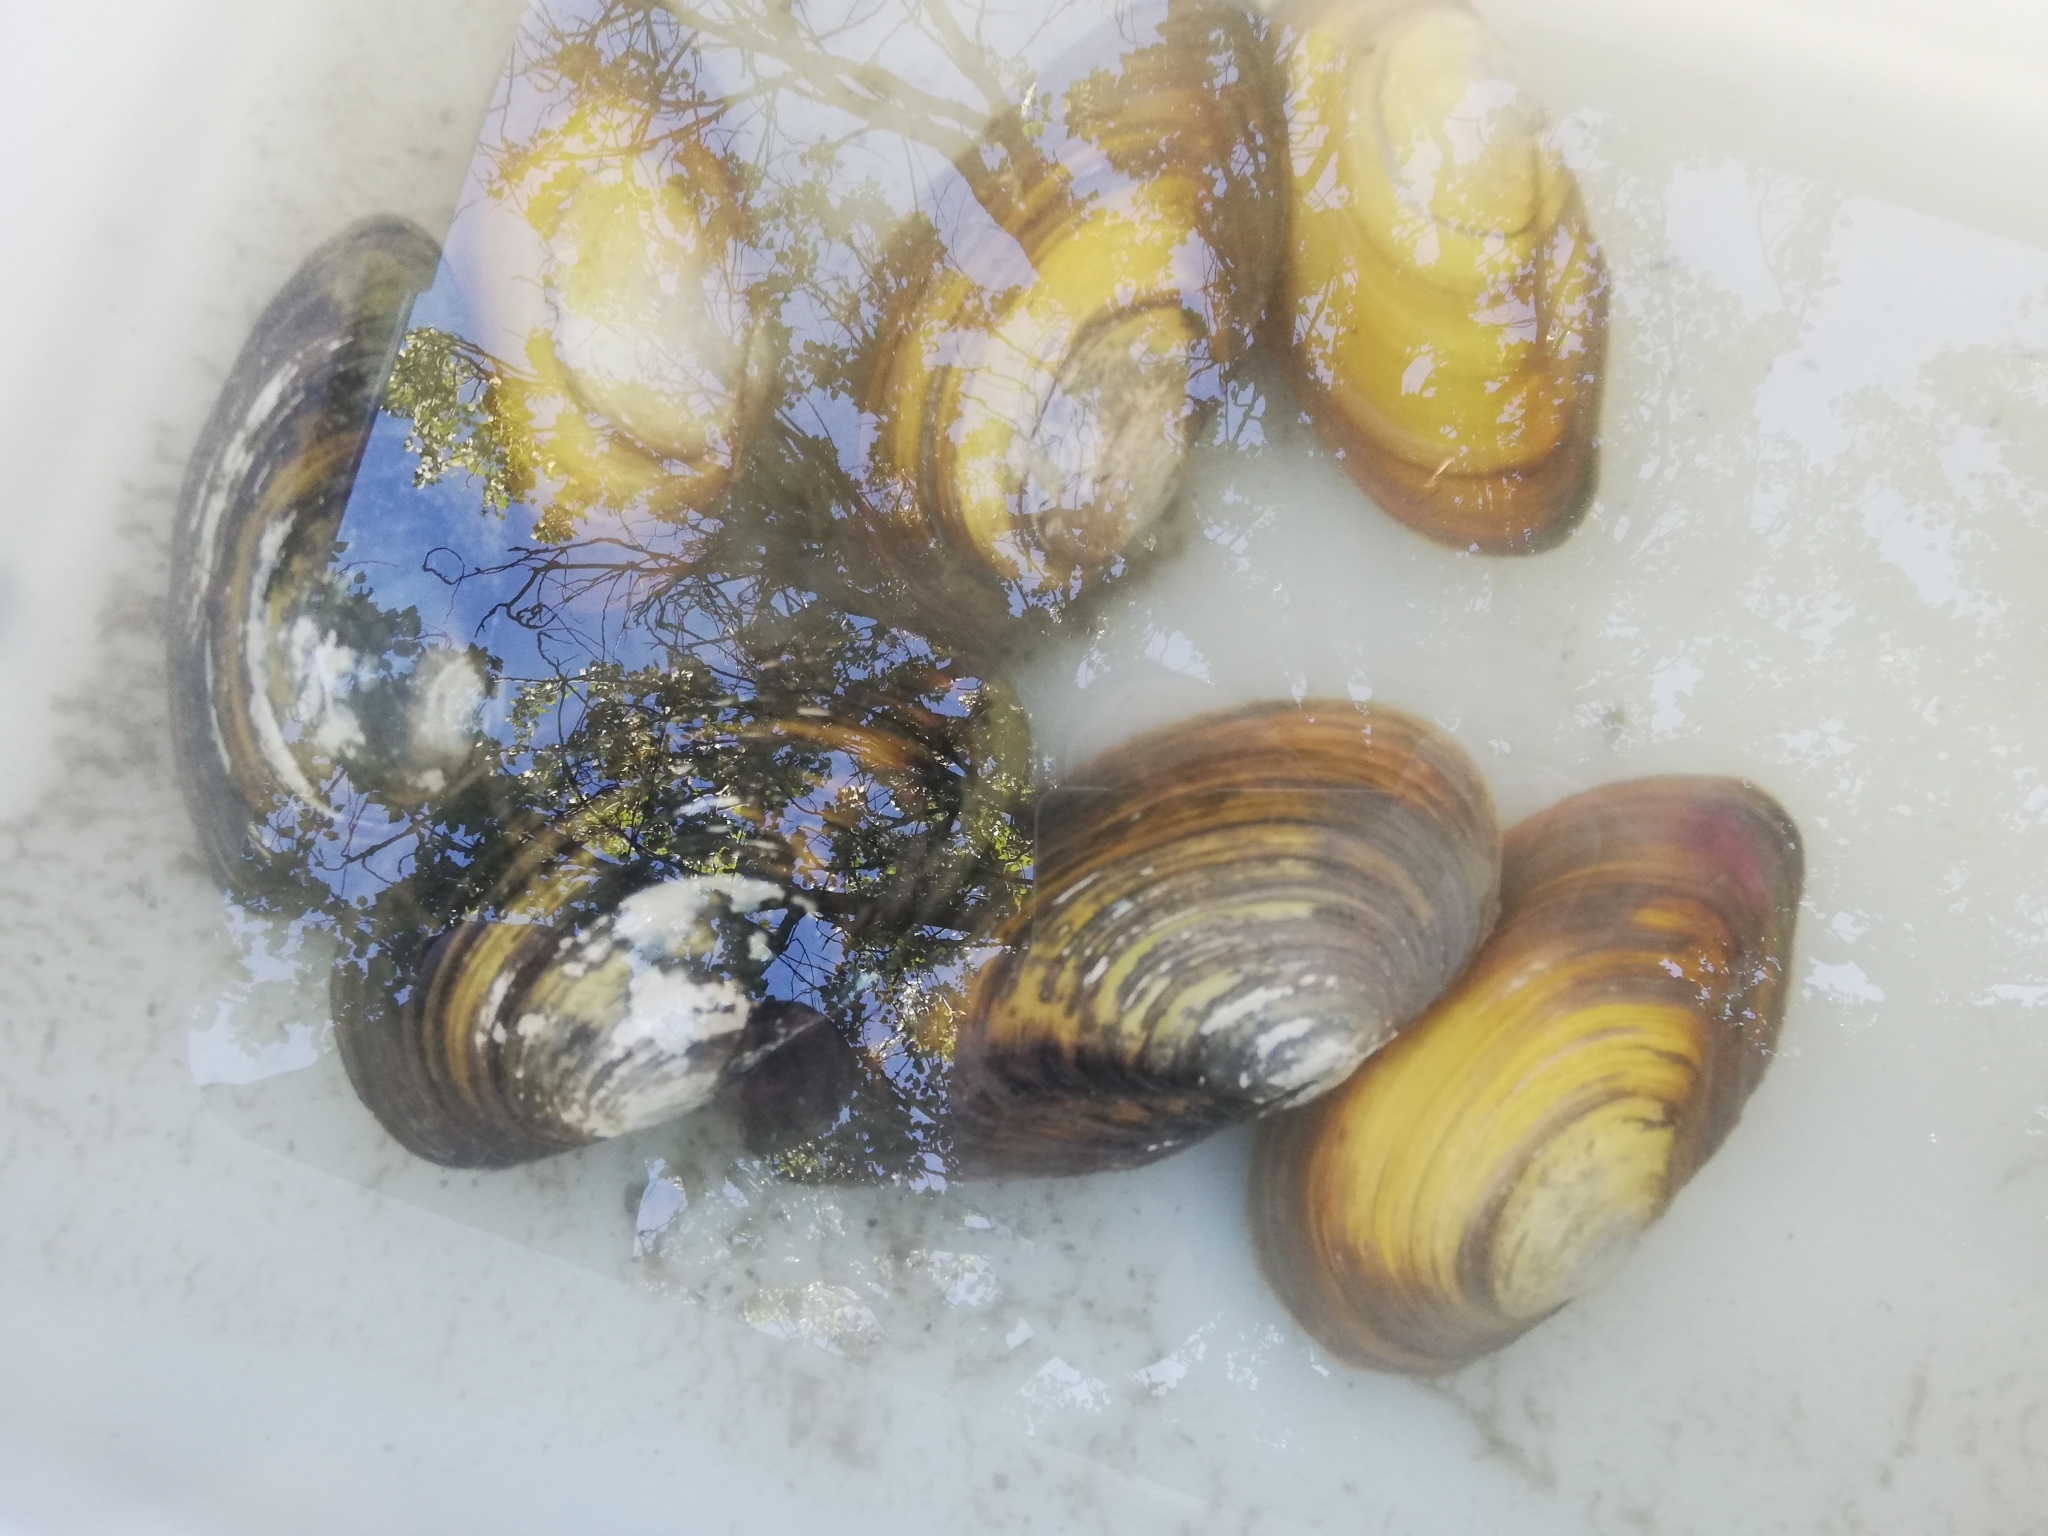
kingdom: Animalia
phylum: Mollusca
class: Bivalvia
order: Unionida
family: Unionidae
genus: Anodonta
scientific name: Anodonta cygnea
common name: Swan mussel
